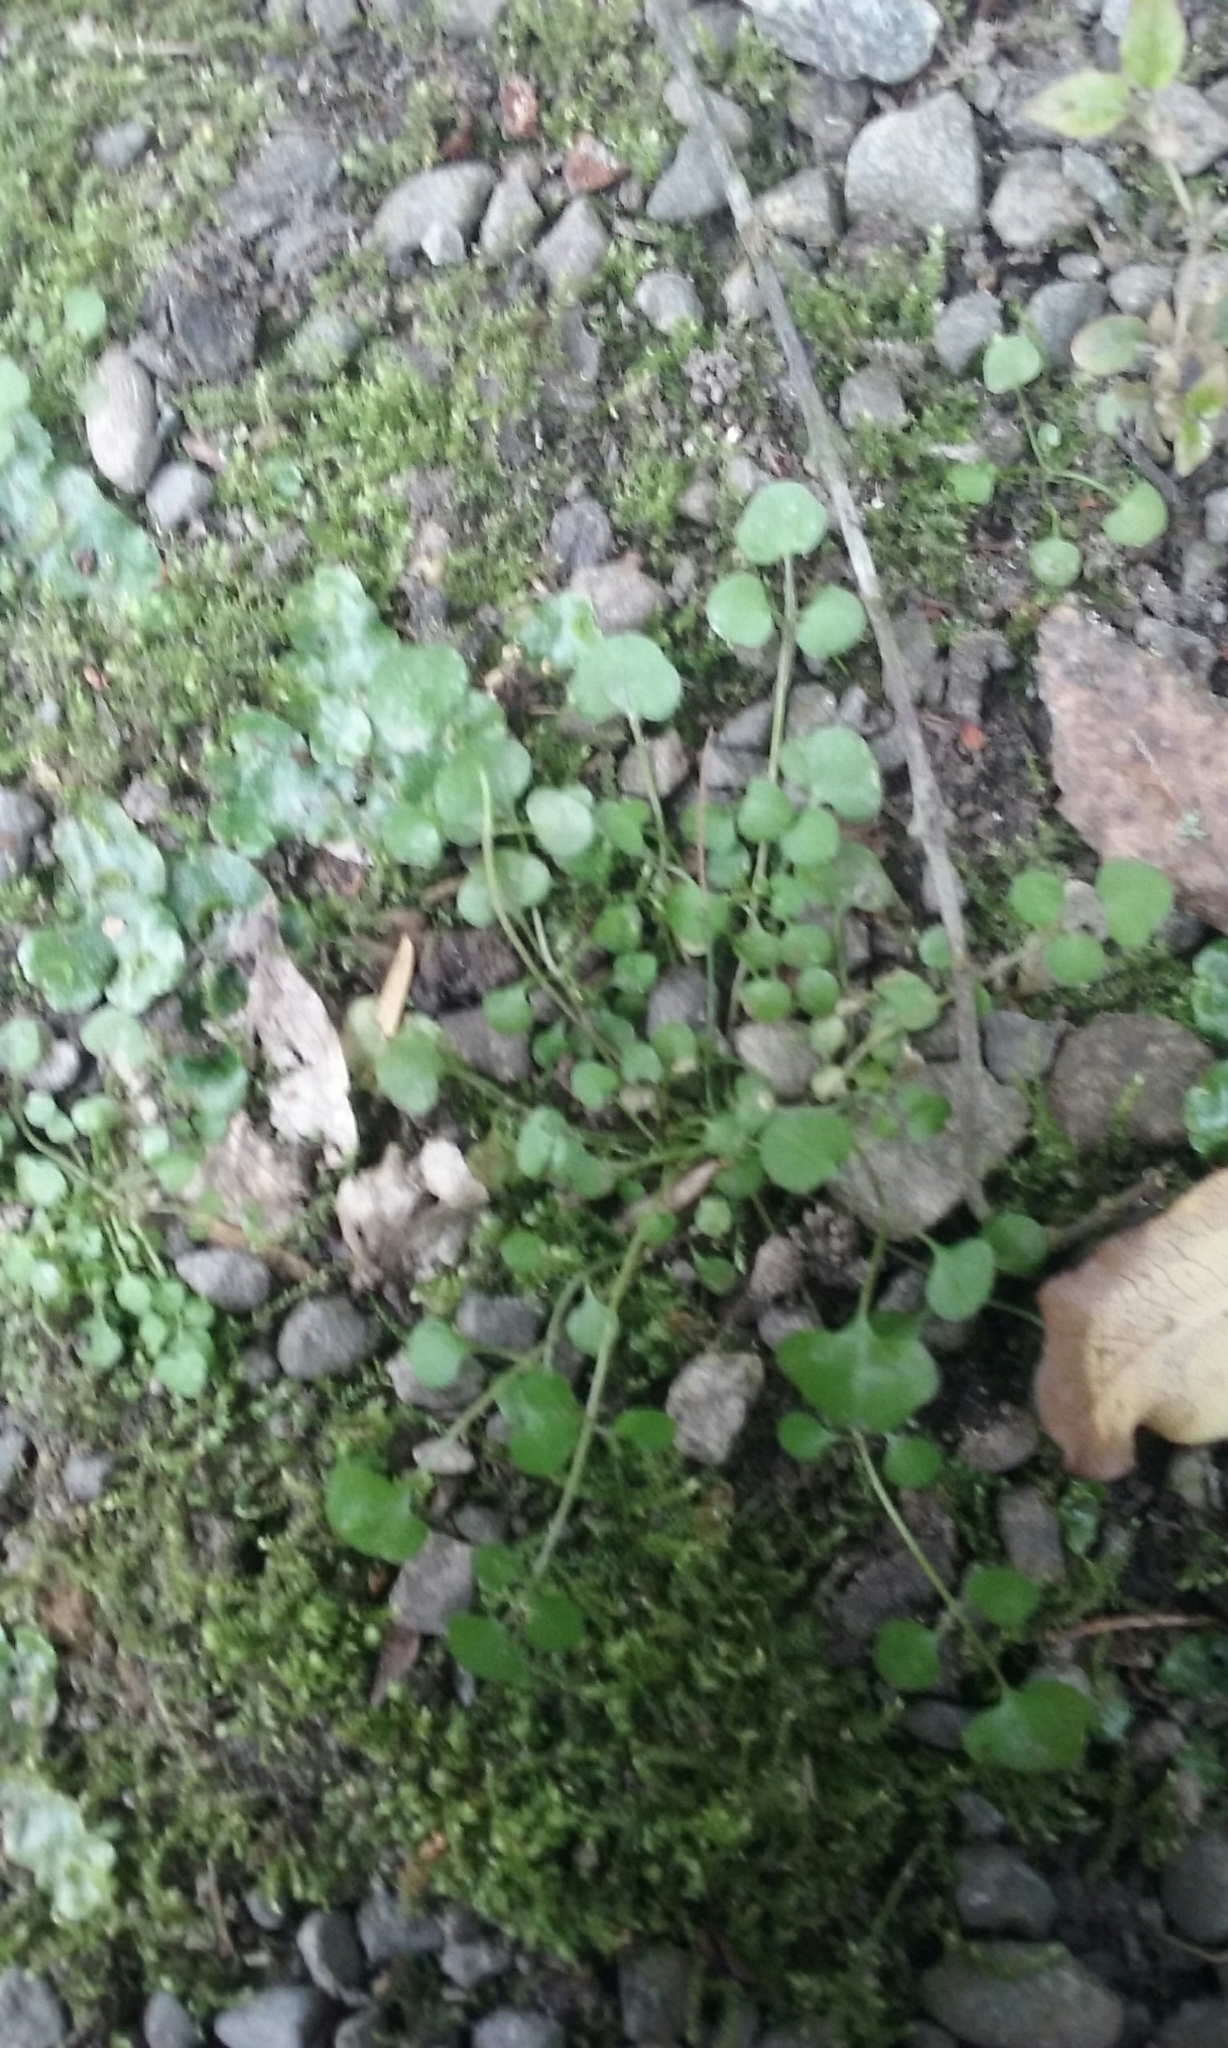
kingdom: Plantae
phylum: Tracheophyta
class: Magnoliopsida
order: Brassicales
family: Brassicaceae
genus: Cardamine
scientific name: Cardamine hirsuta
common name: Hairy bittercress
